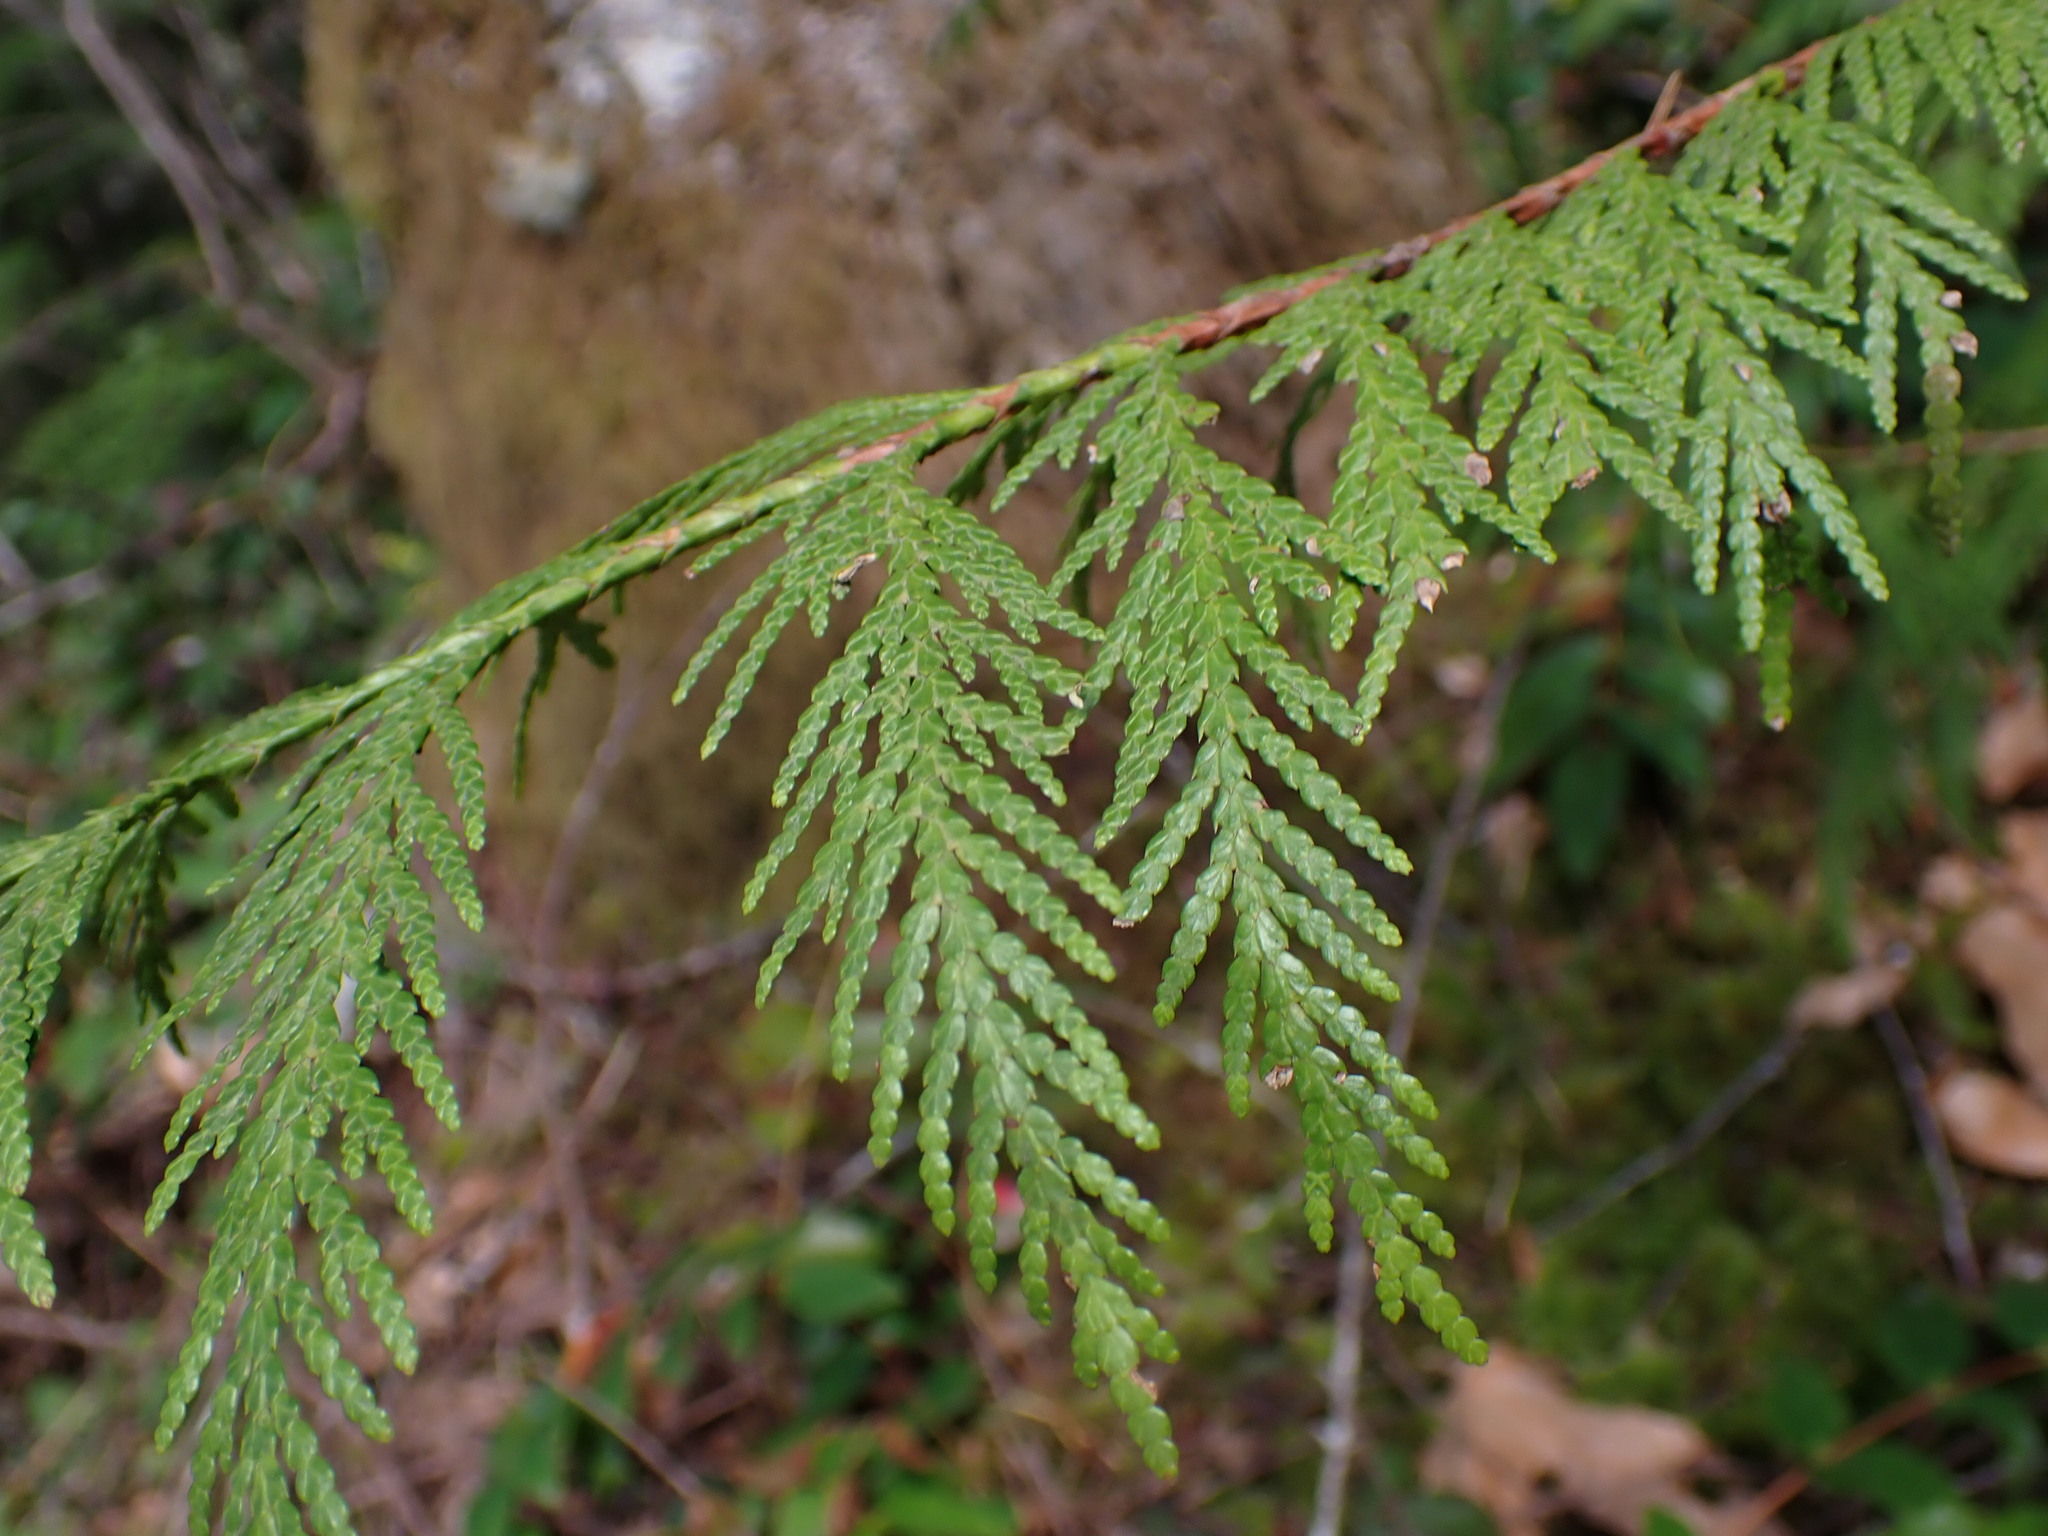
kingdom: Plantae
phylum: Tracheophyta
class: Pinopsida
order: Pinales
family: Cupressaceae
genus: Thuja
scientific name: Thuja plicata
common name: Western red-cedar
